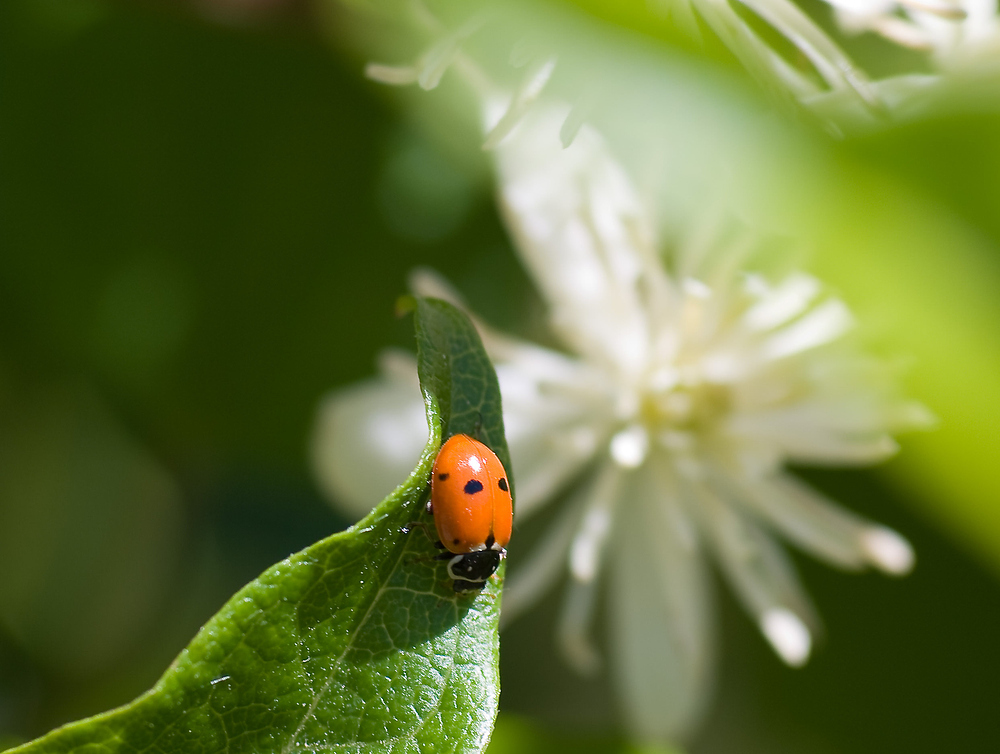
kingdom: Animalia
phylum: Arthropoda
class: Insecta
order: Coleoptera
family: Coccinellidae
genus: Hippodamia
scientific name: Hippodamia variegata
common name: Ladybird beetle
